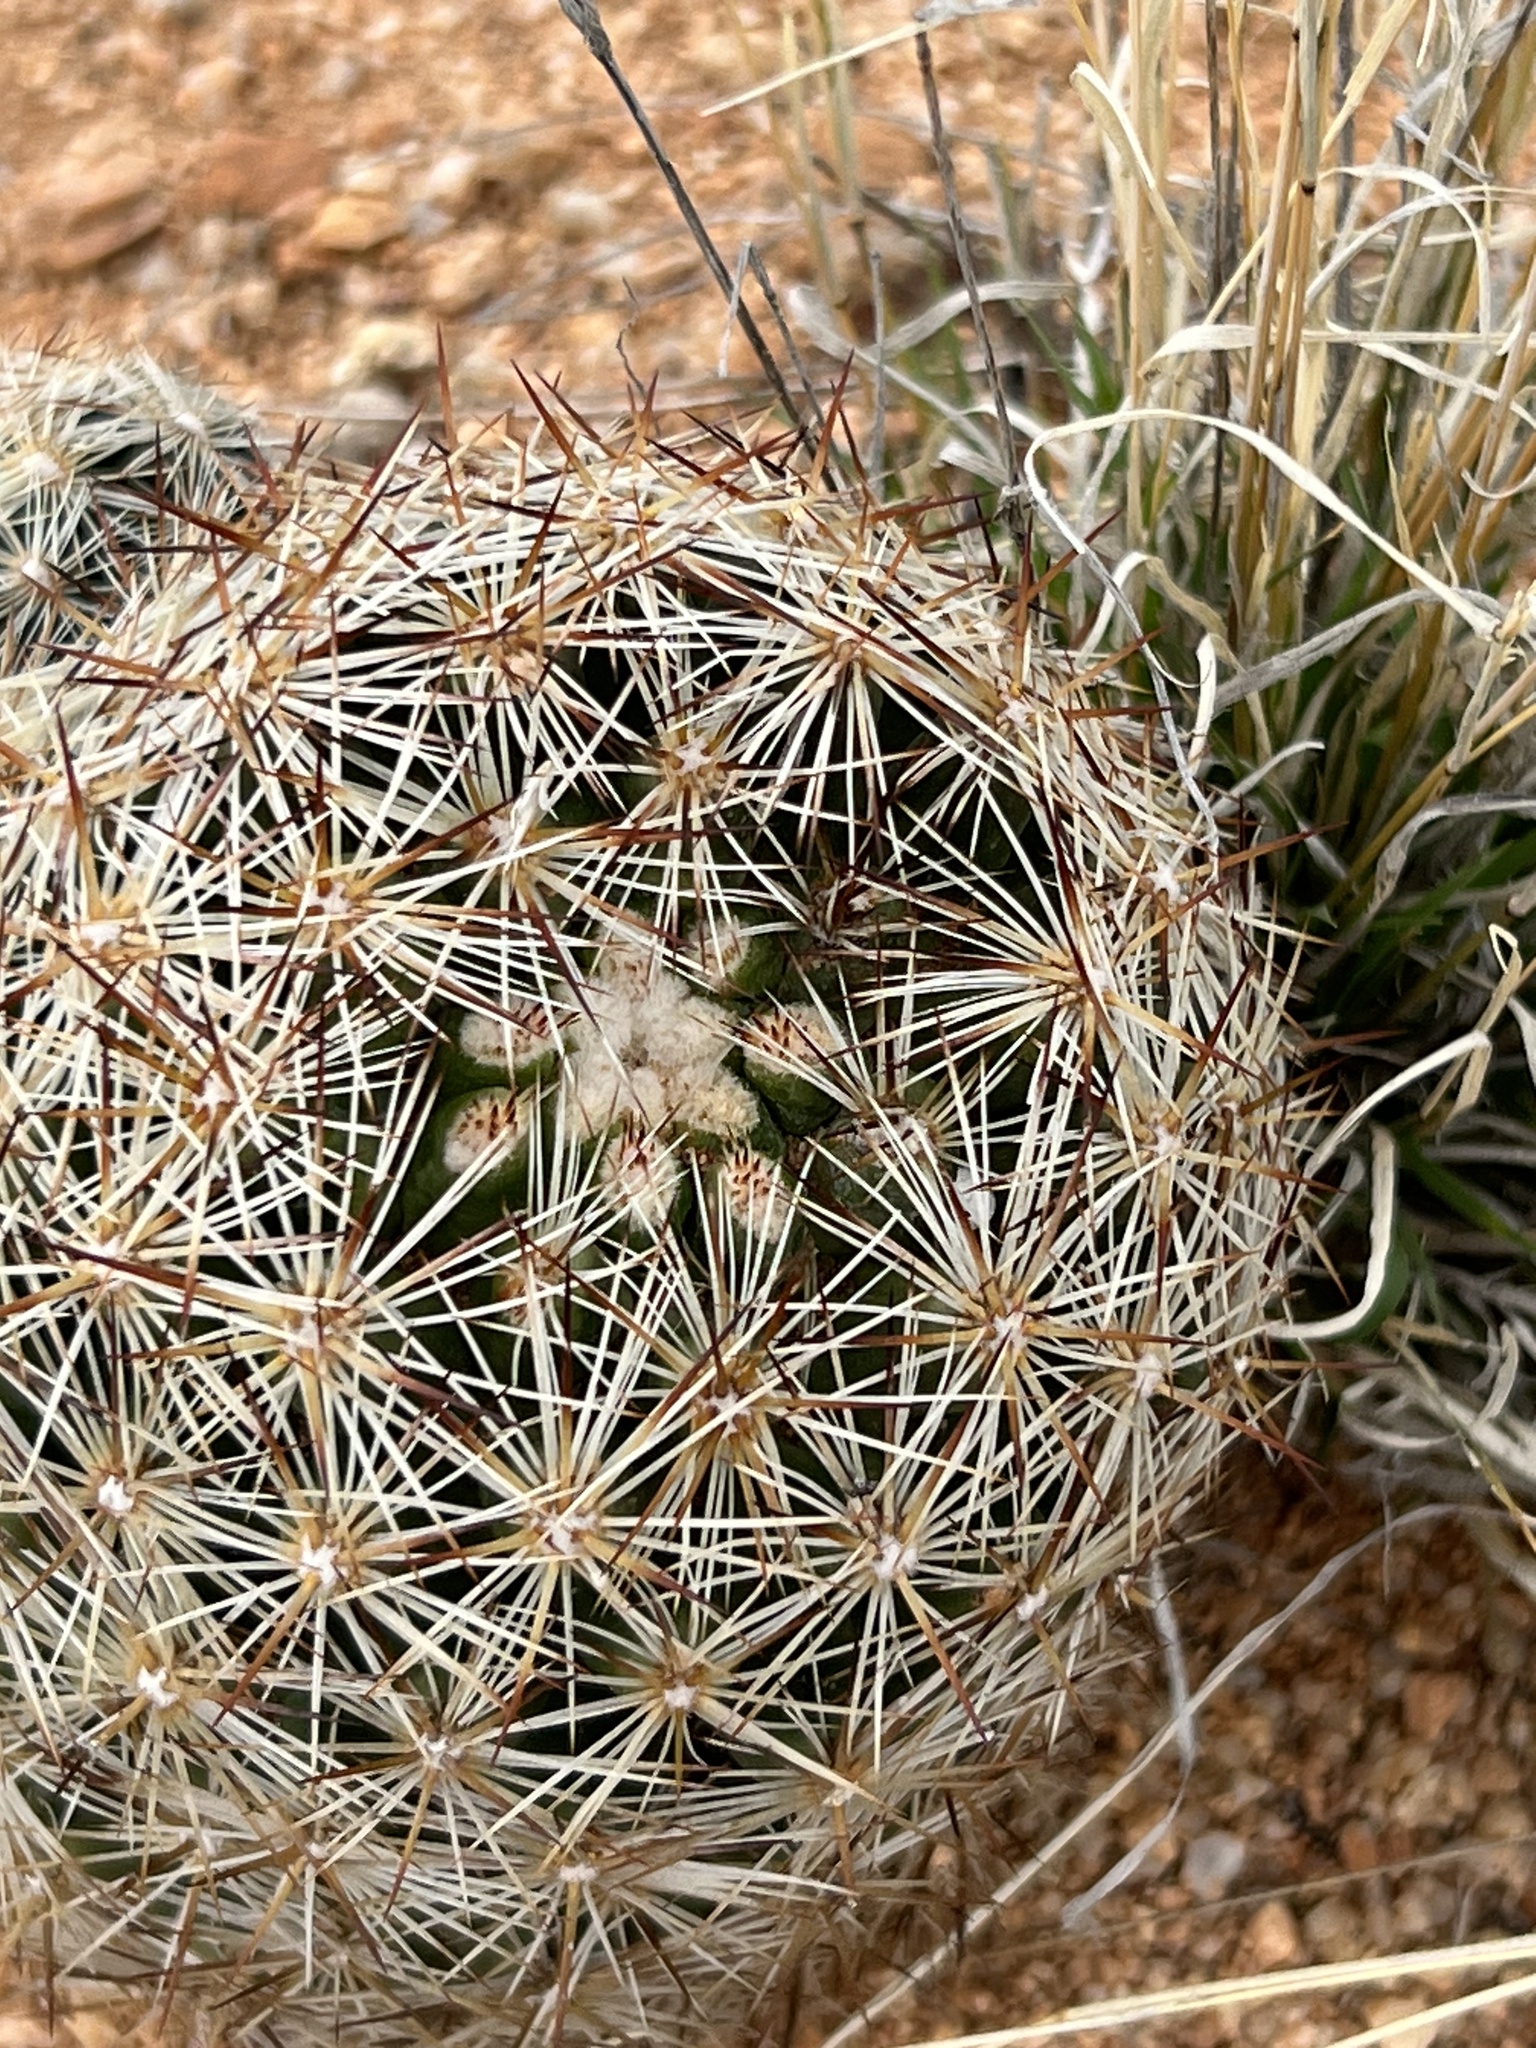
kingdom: Plantae
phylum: Tracheophyta
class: Magnoliopsida
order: Caryophyllales
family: Cactaceae
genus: Pelecyphora
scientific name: Pelecyphora vivipara
